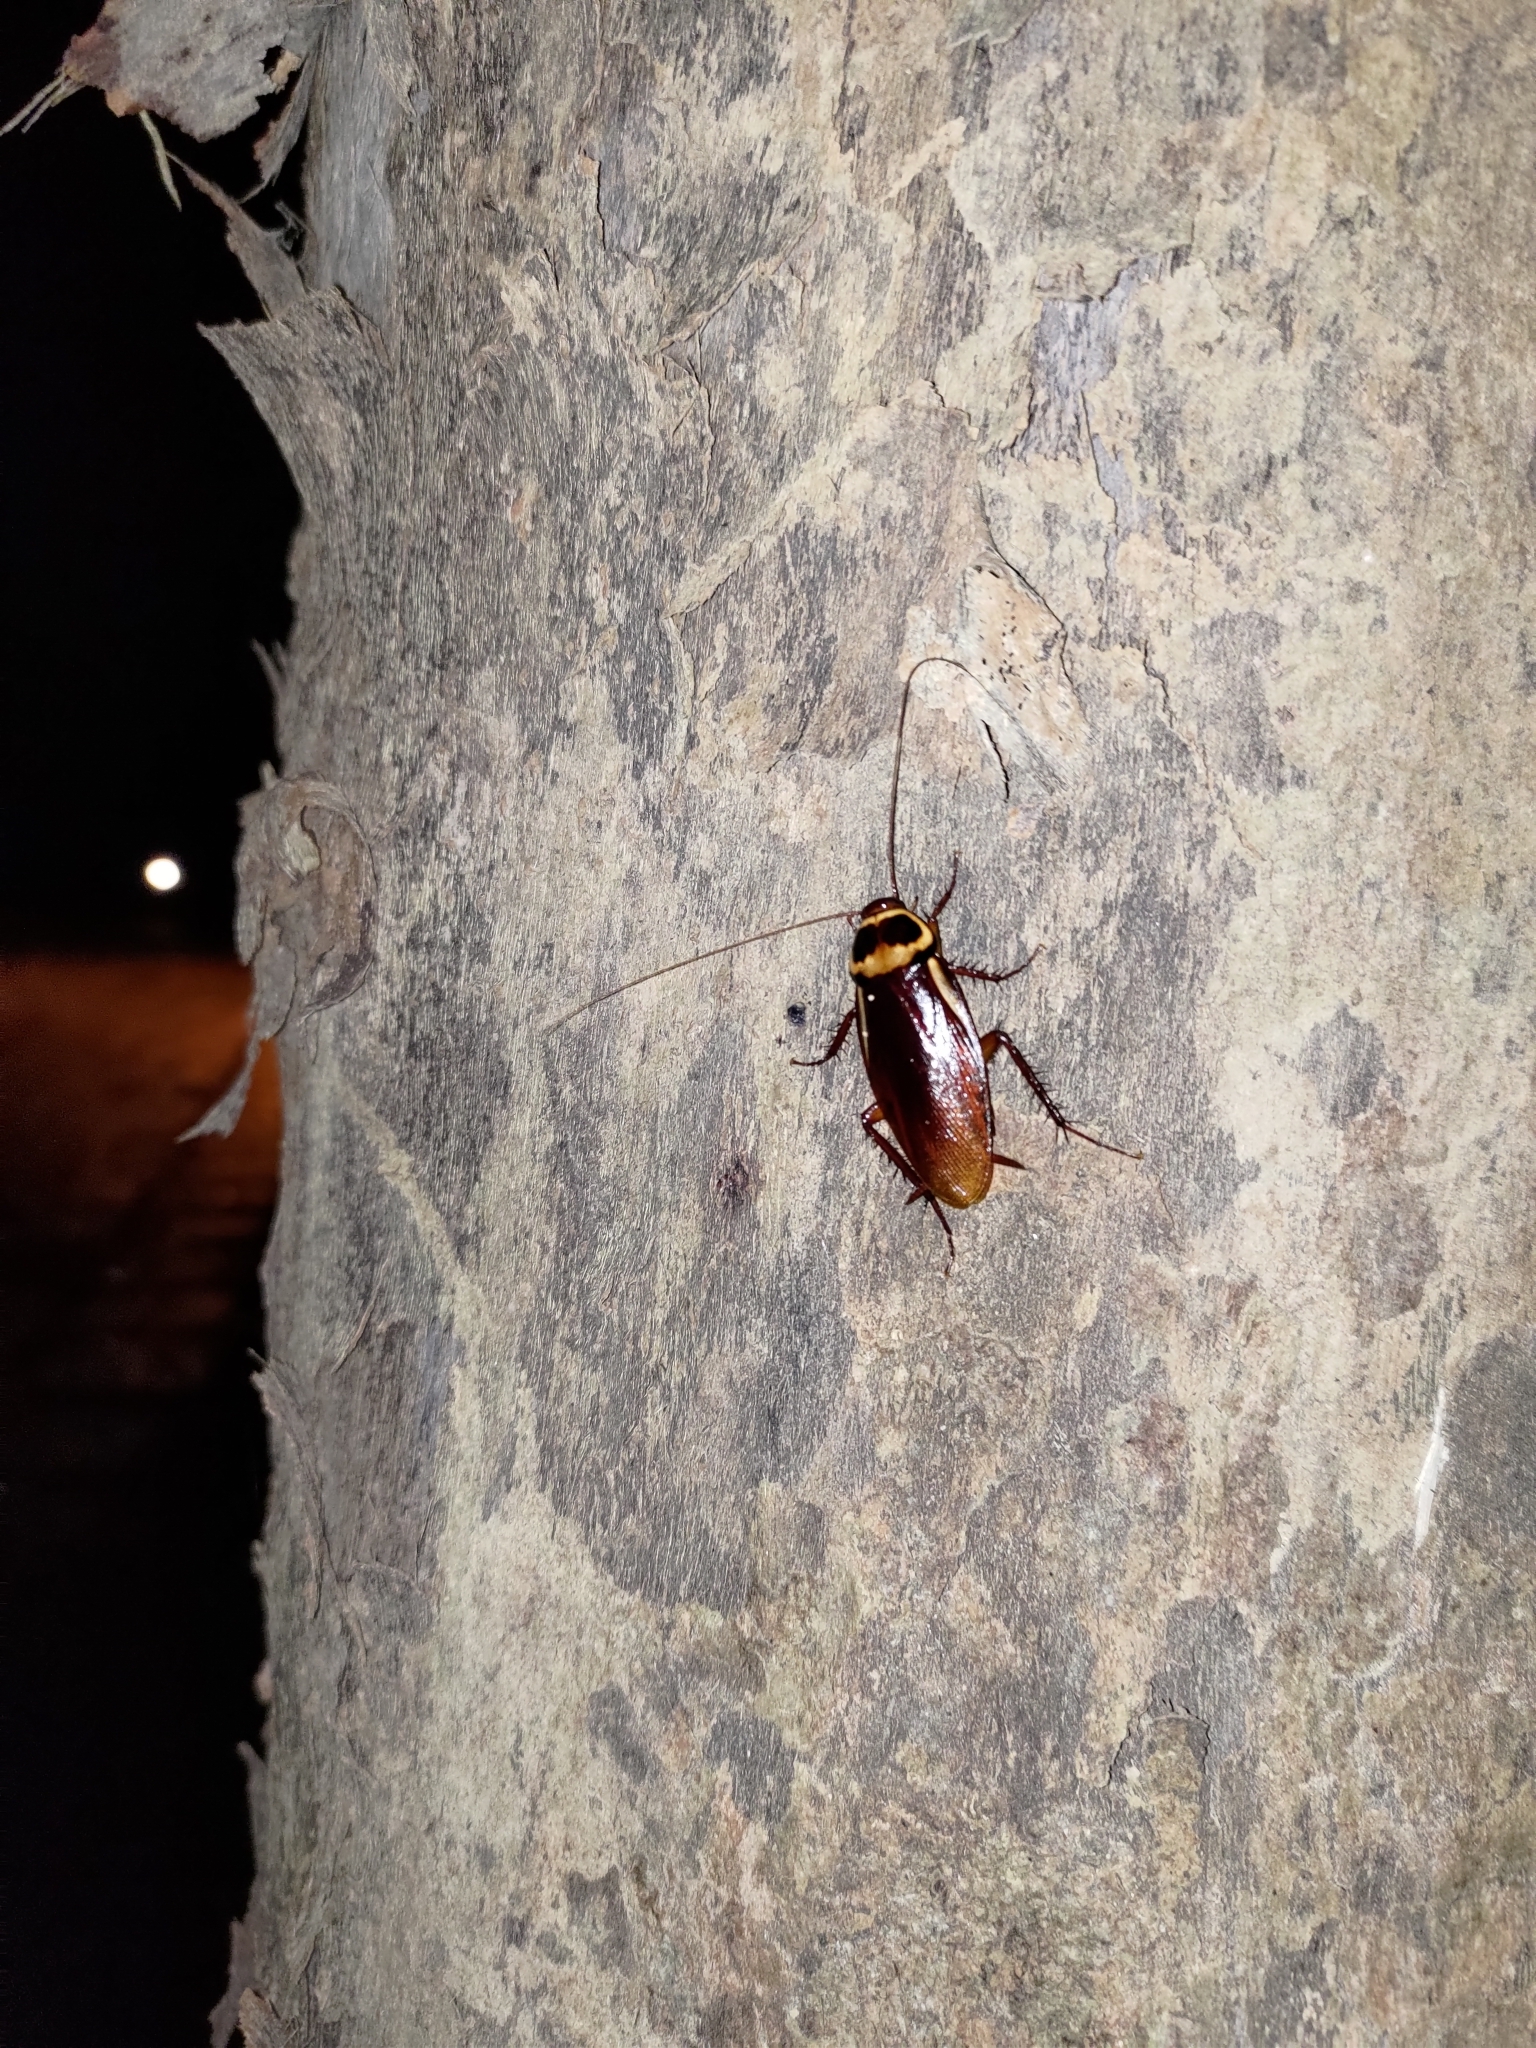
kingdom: Animalia
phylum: Arthropoda
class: Insecta
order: Blattodea
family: Blattidae
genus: Periplaneta
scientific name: Periplaneta australasiae
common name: Australian cockroach
